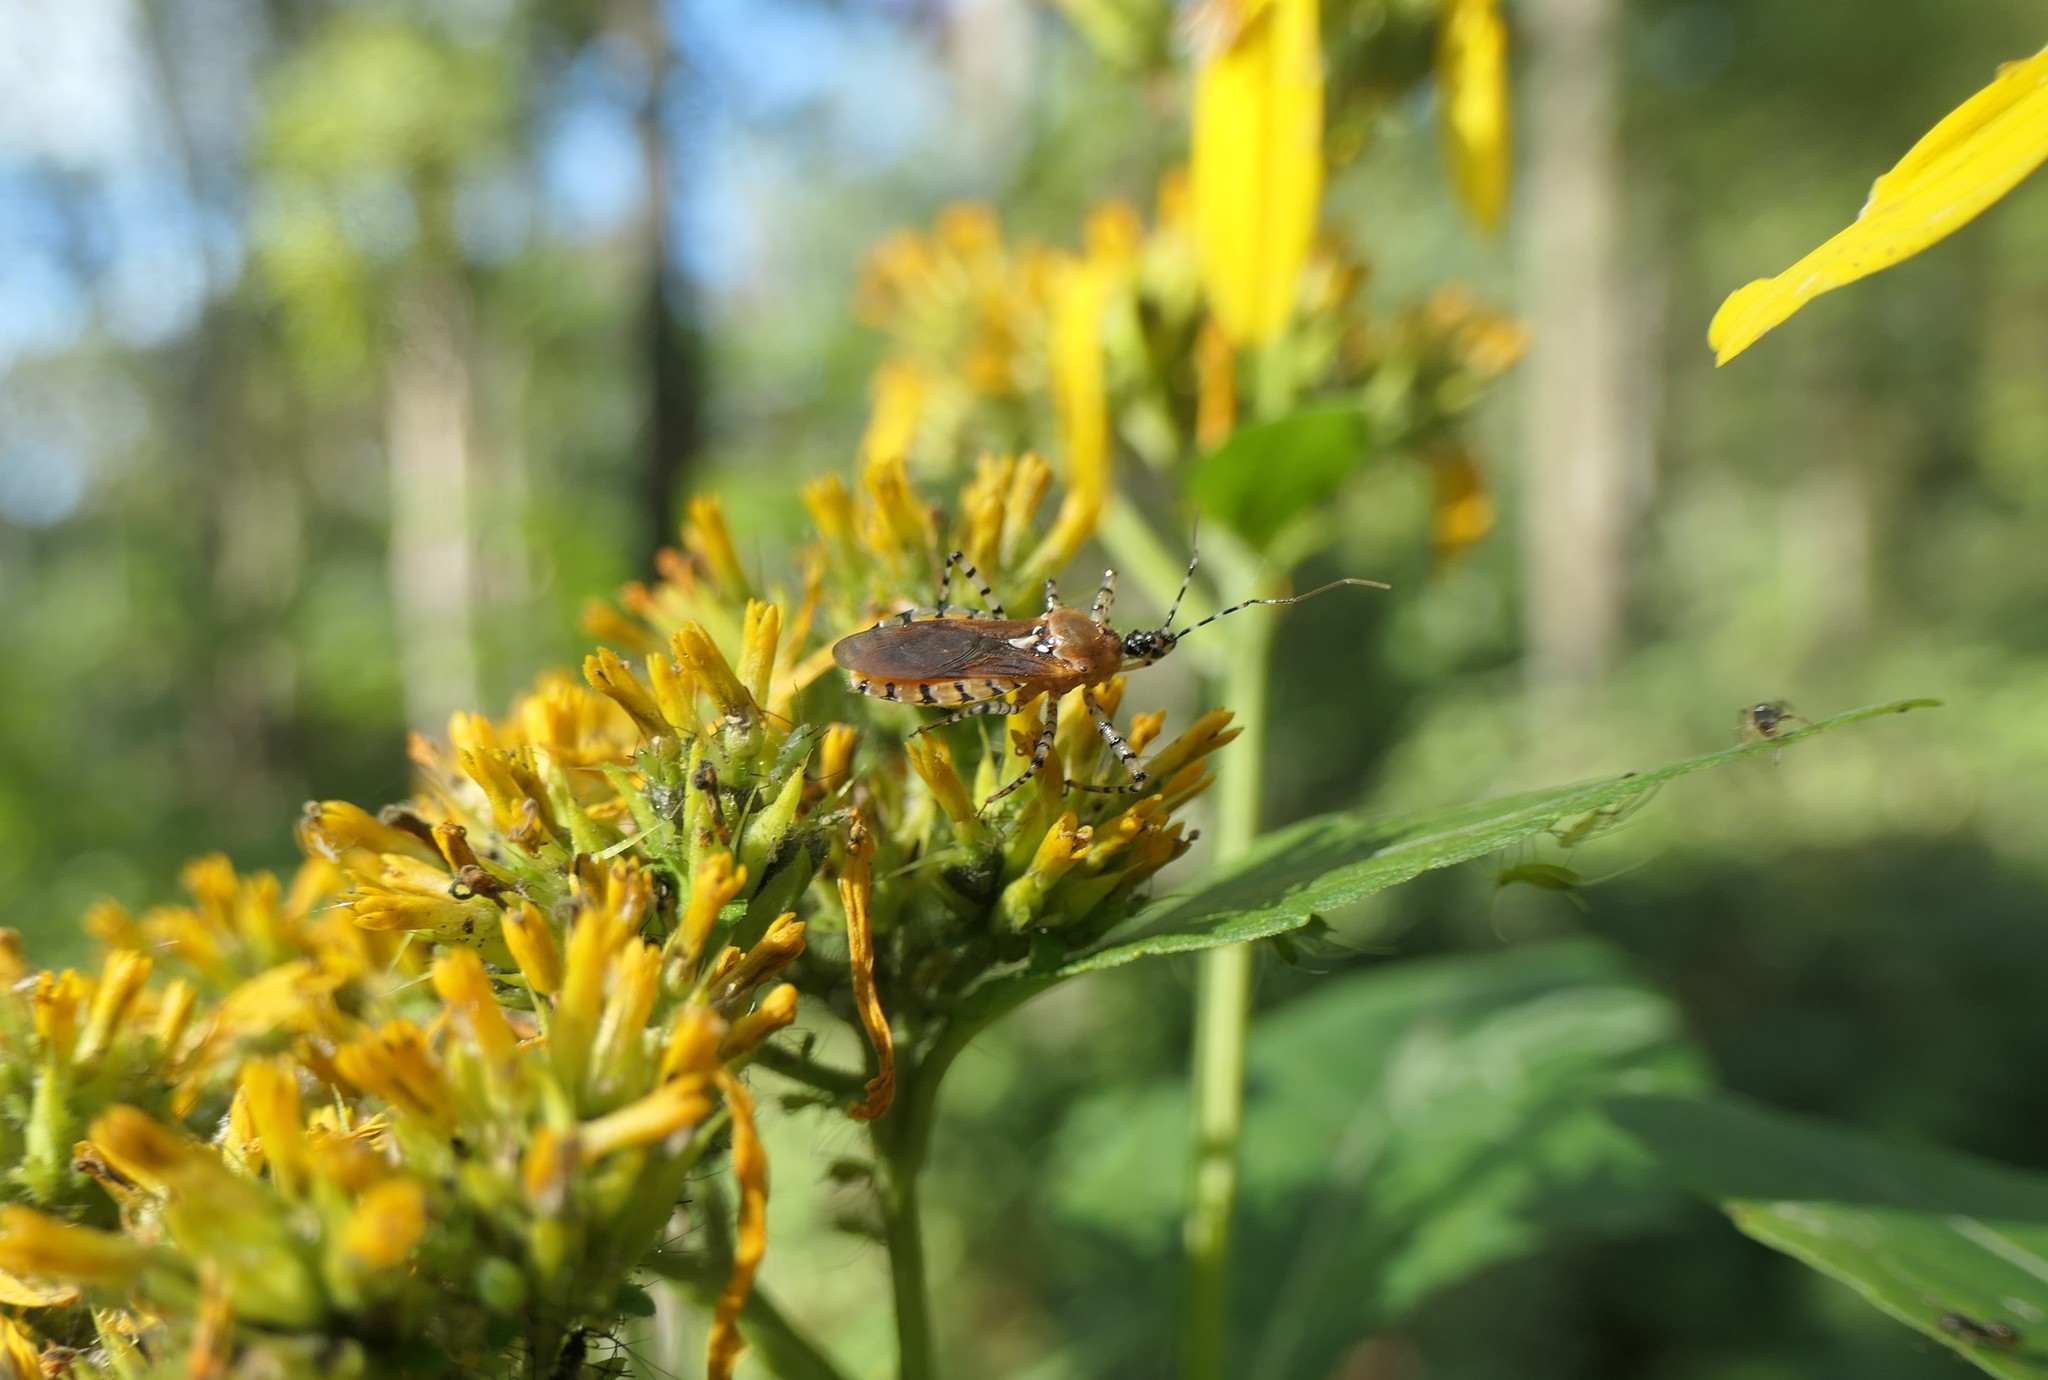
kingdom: Animalia
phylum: Arthropoda
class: Insecta
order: Hemiptera
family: Reduviidae
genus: Pselliopus
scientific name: Pselliopus cinctus
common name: Ringed assassin bug
